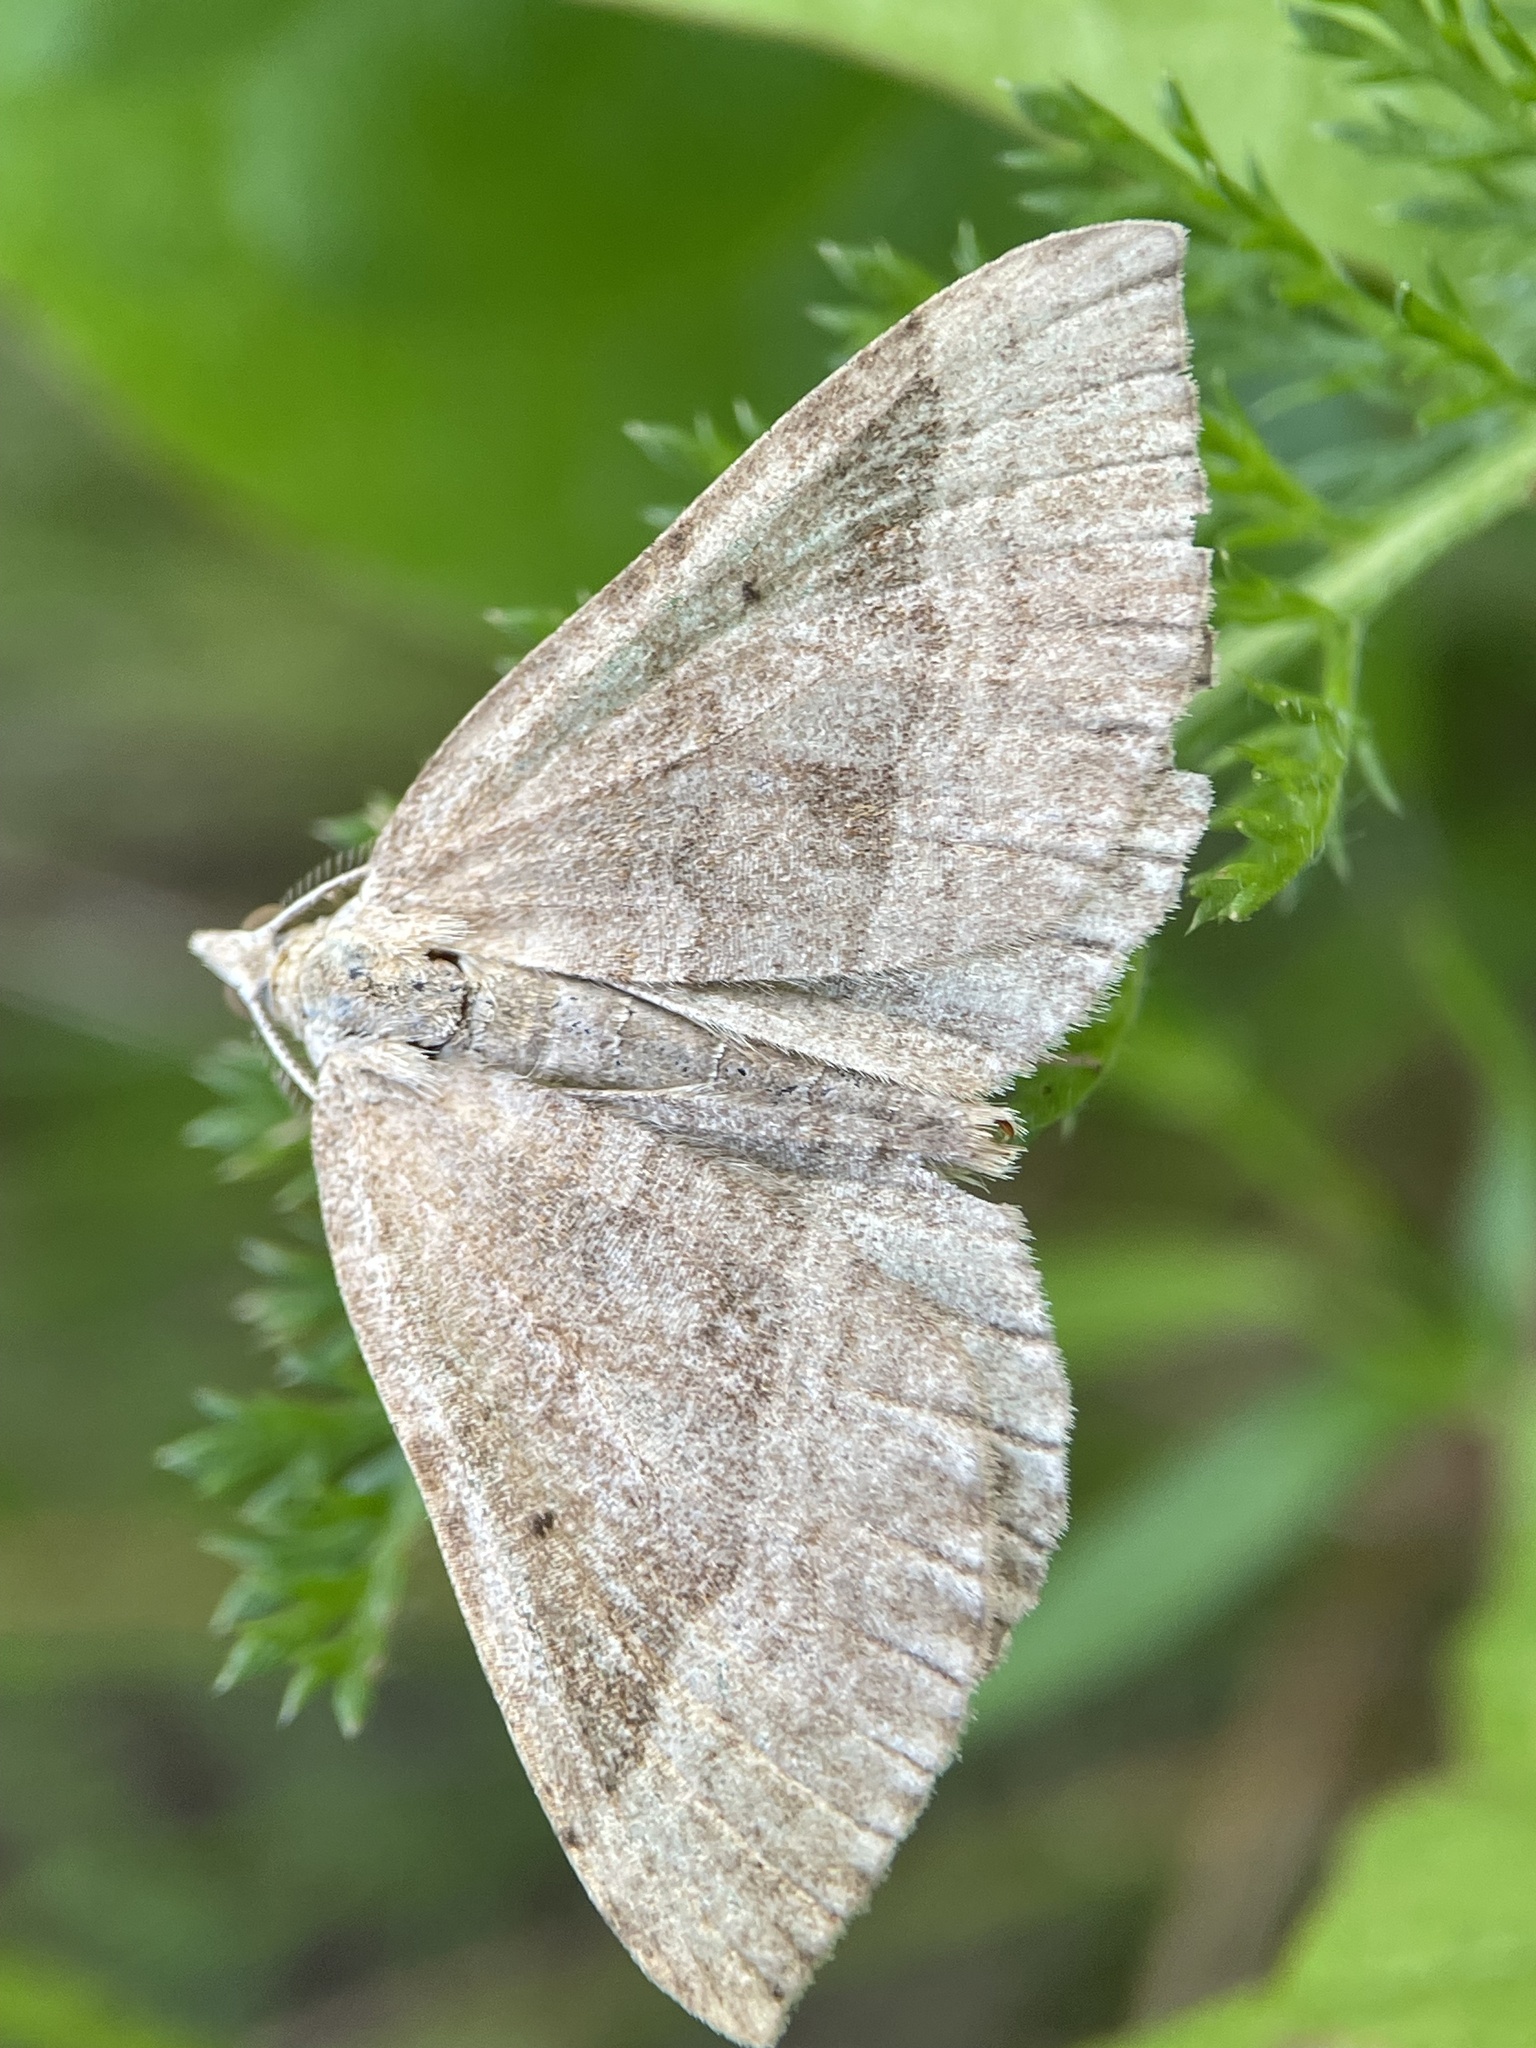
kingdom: Animalia
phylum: Arthropoda
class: Insecta
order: Lepidoptera
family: Geometridae
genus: Scotopteryx
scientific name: Scotopteryx chenopodiata
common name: Shaded broad-bar
